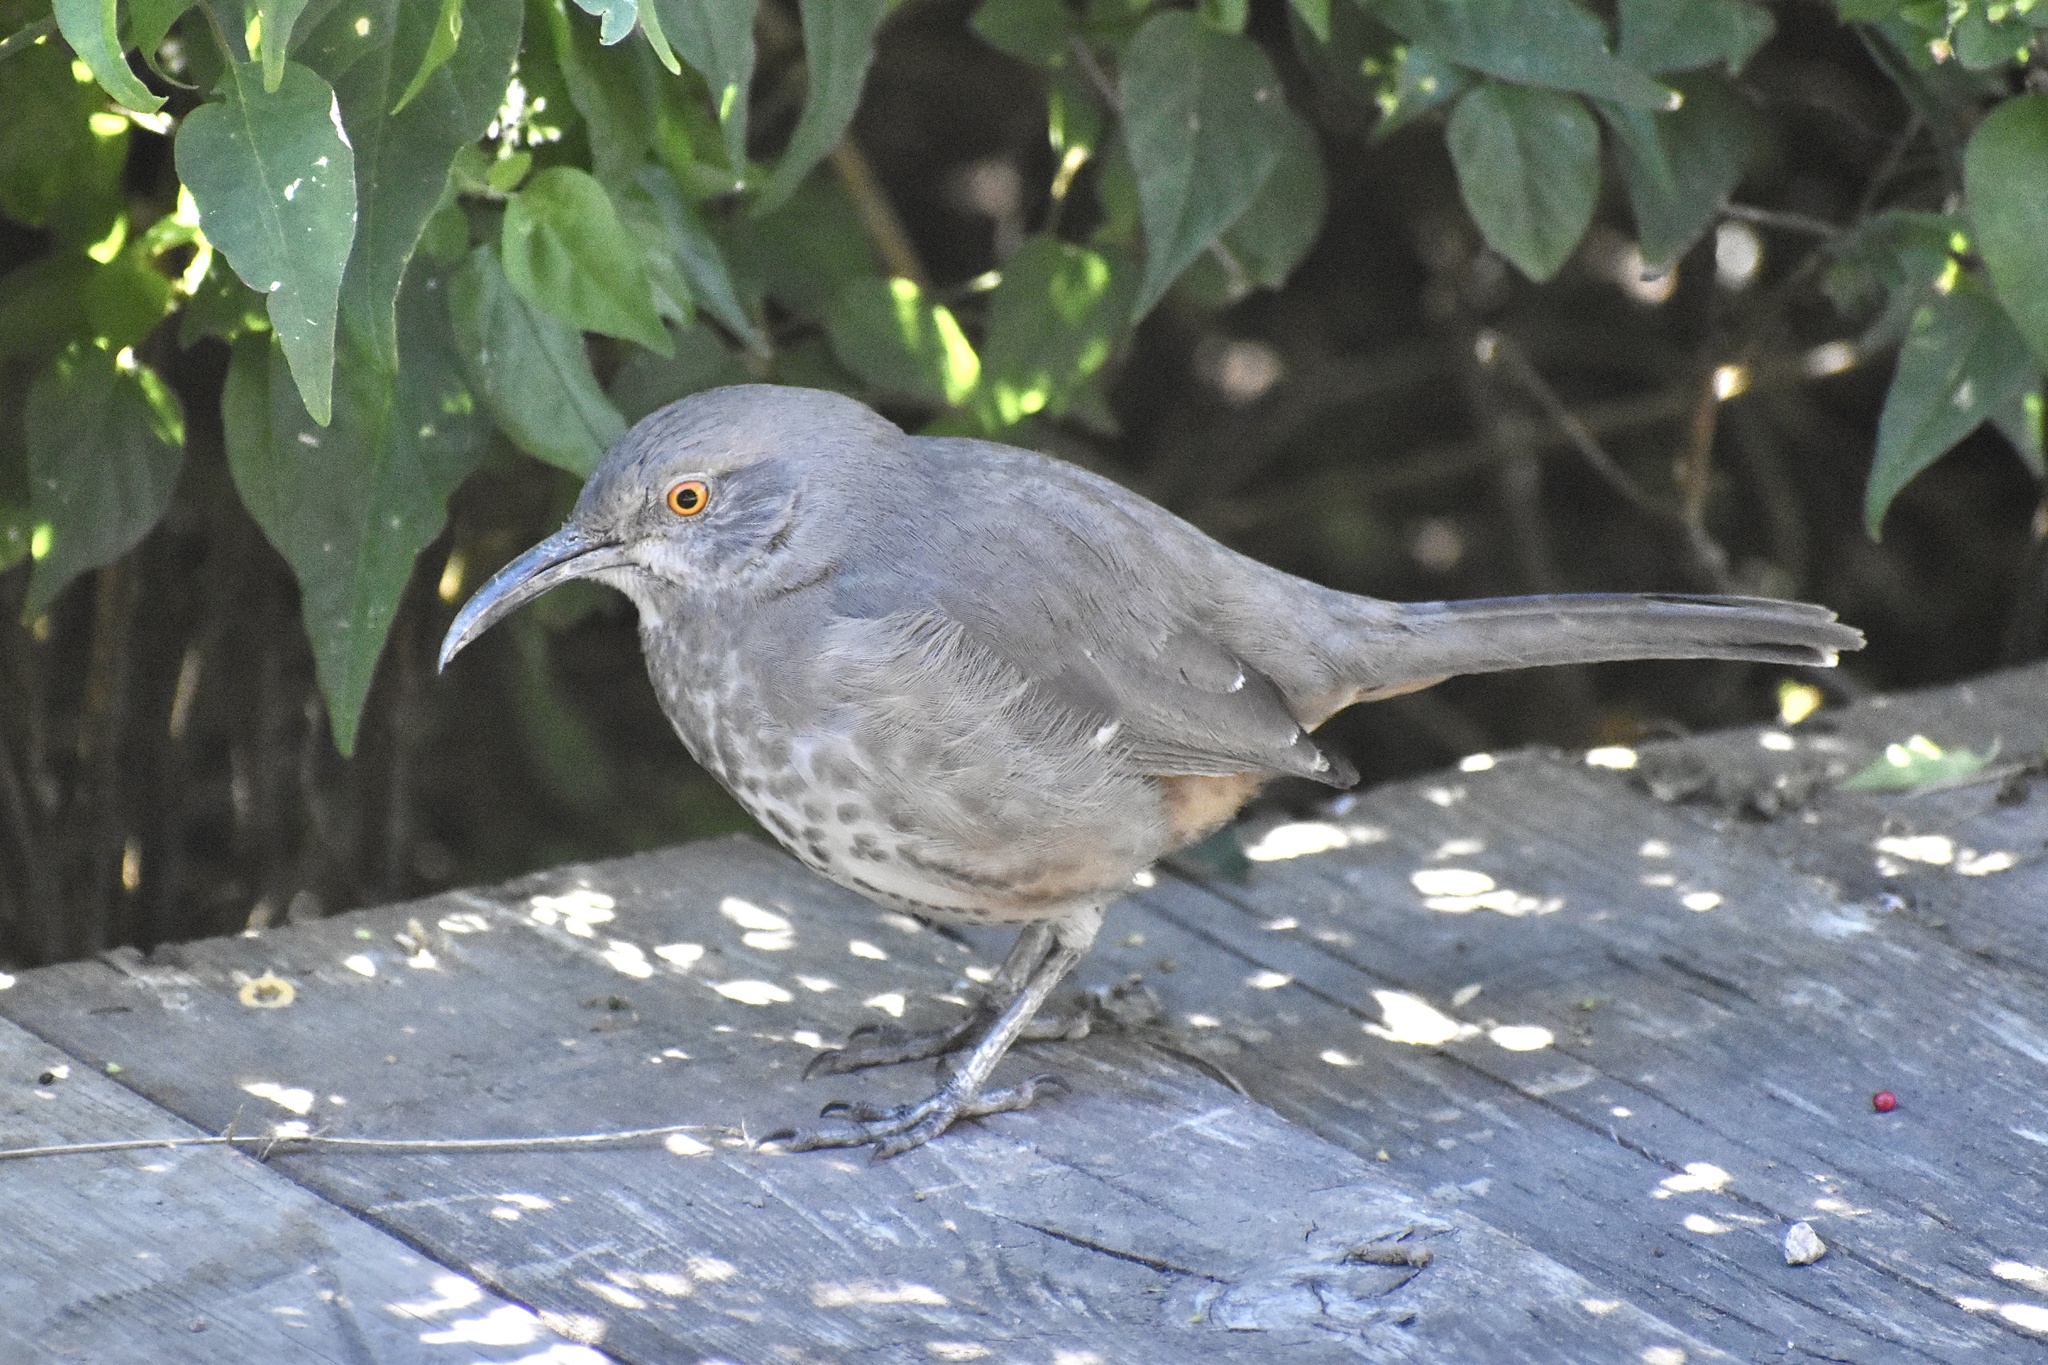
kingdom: Animalia
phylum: Chordata
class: Aves
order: Passeriformes
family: Mimidae
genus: Toxostoma
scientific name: Toxostoma curvirostre
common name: Curve-billed thrasher
